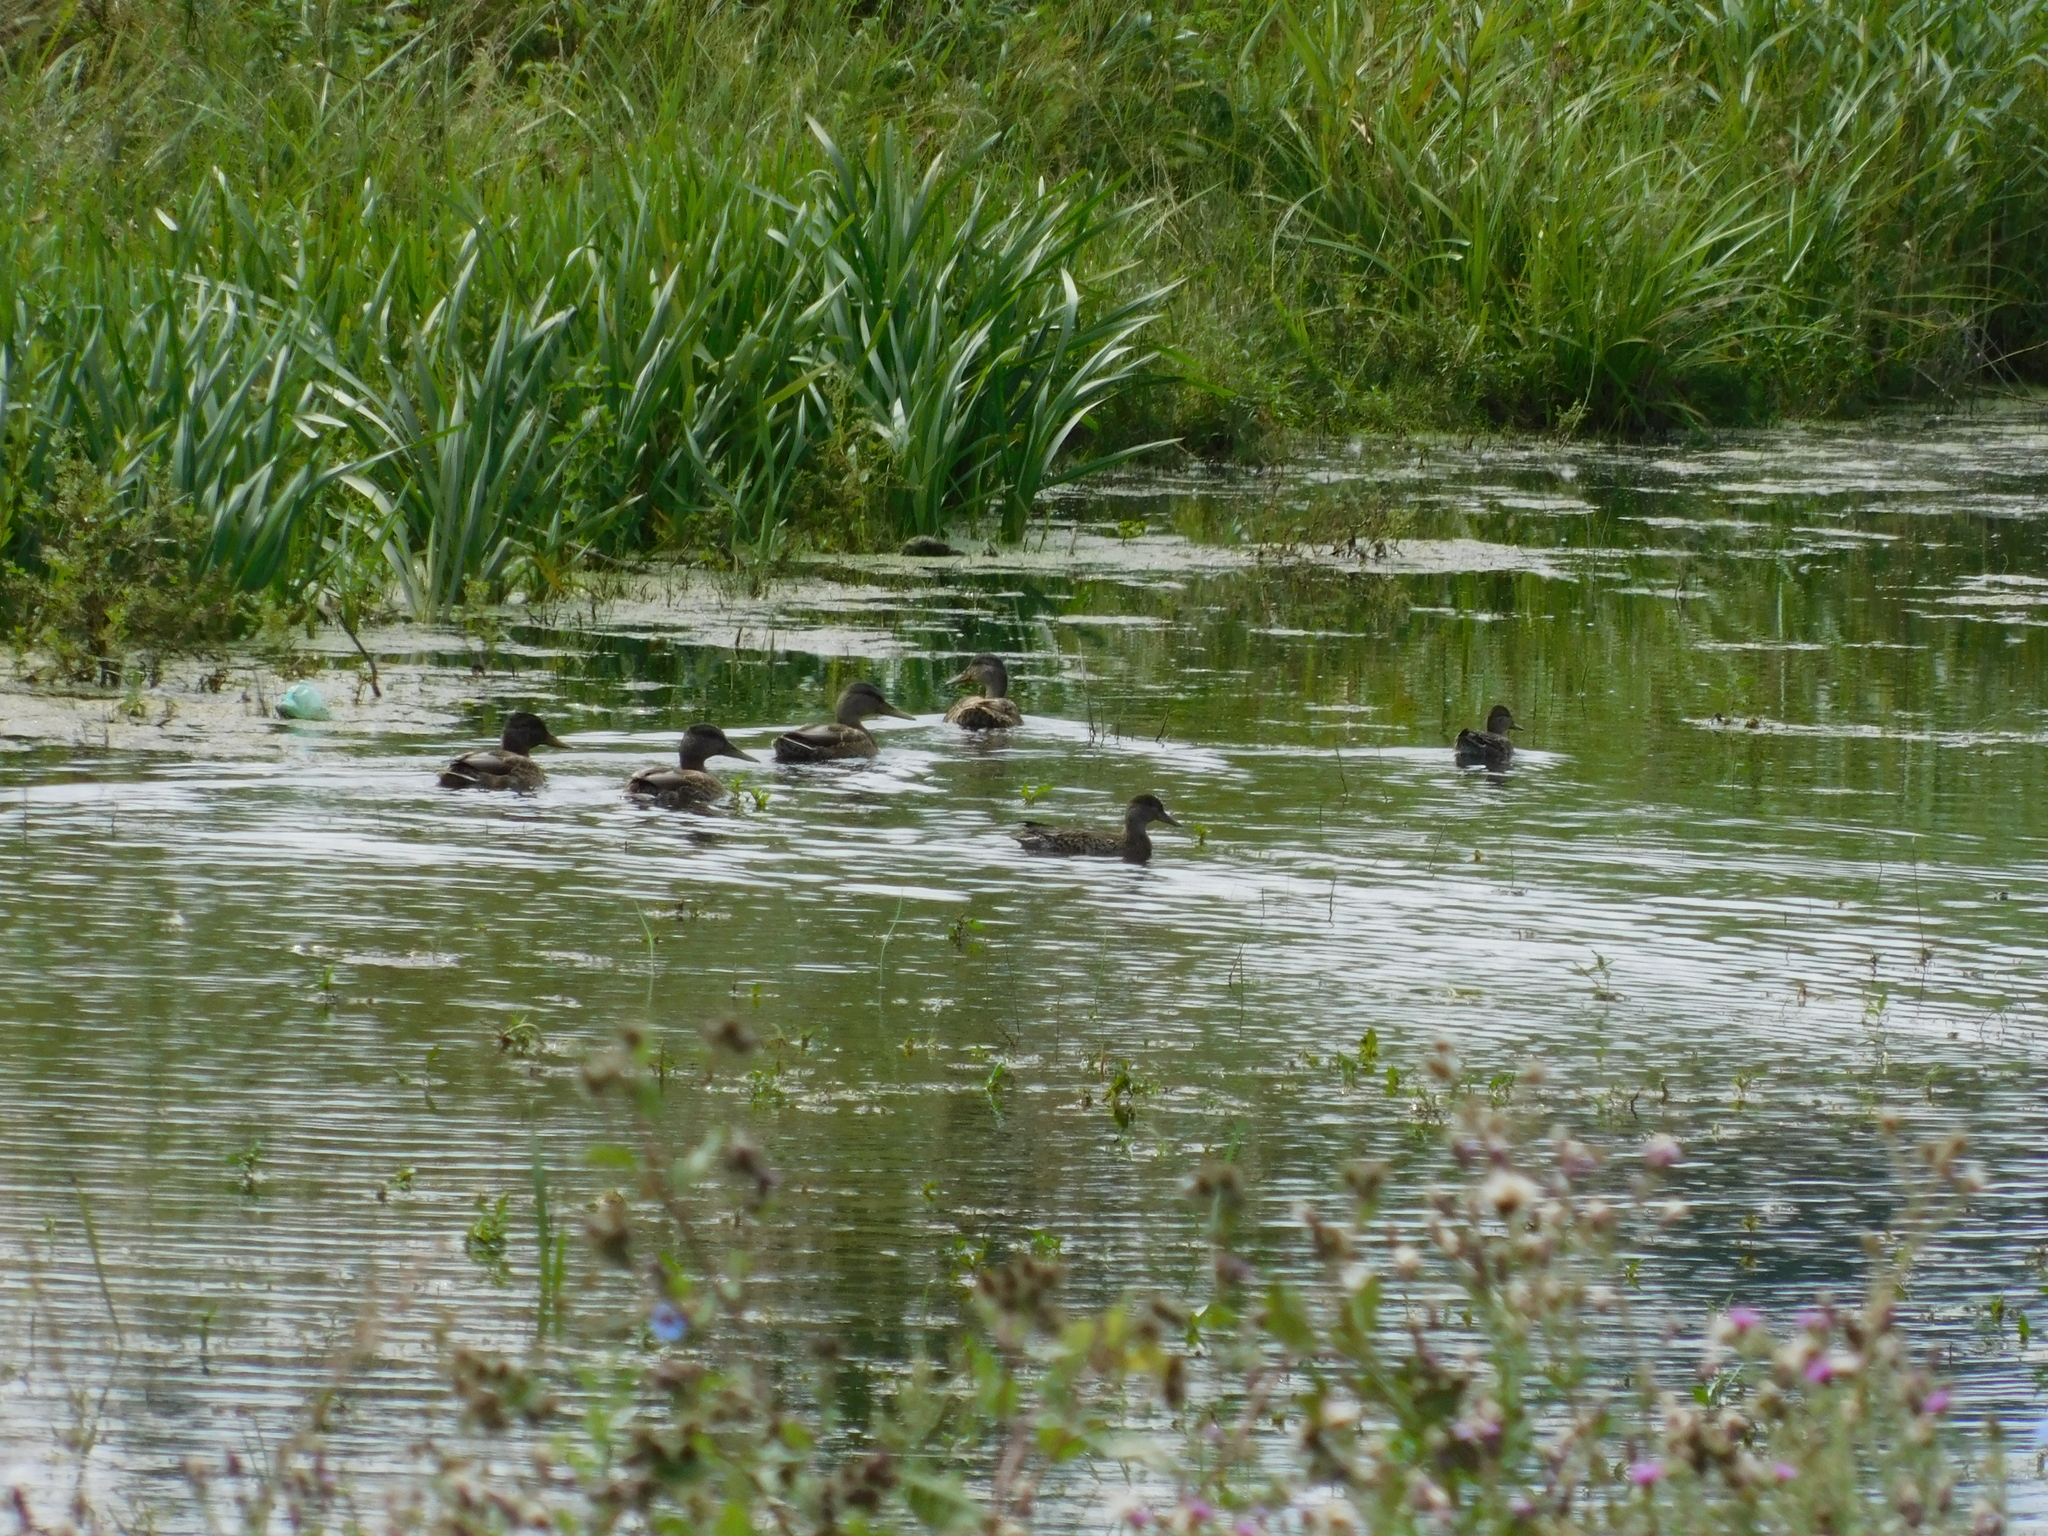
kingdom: Animalia
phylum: Chordata
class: Aves
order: Anseriformes
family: Anatidae
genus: Anas
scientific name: Anas platyrhynchos
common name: Mallard
